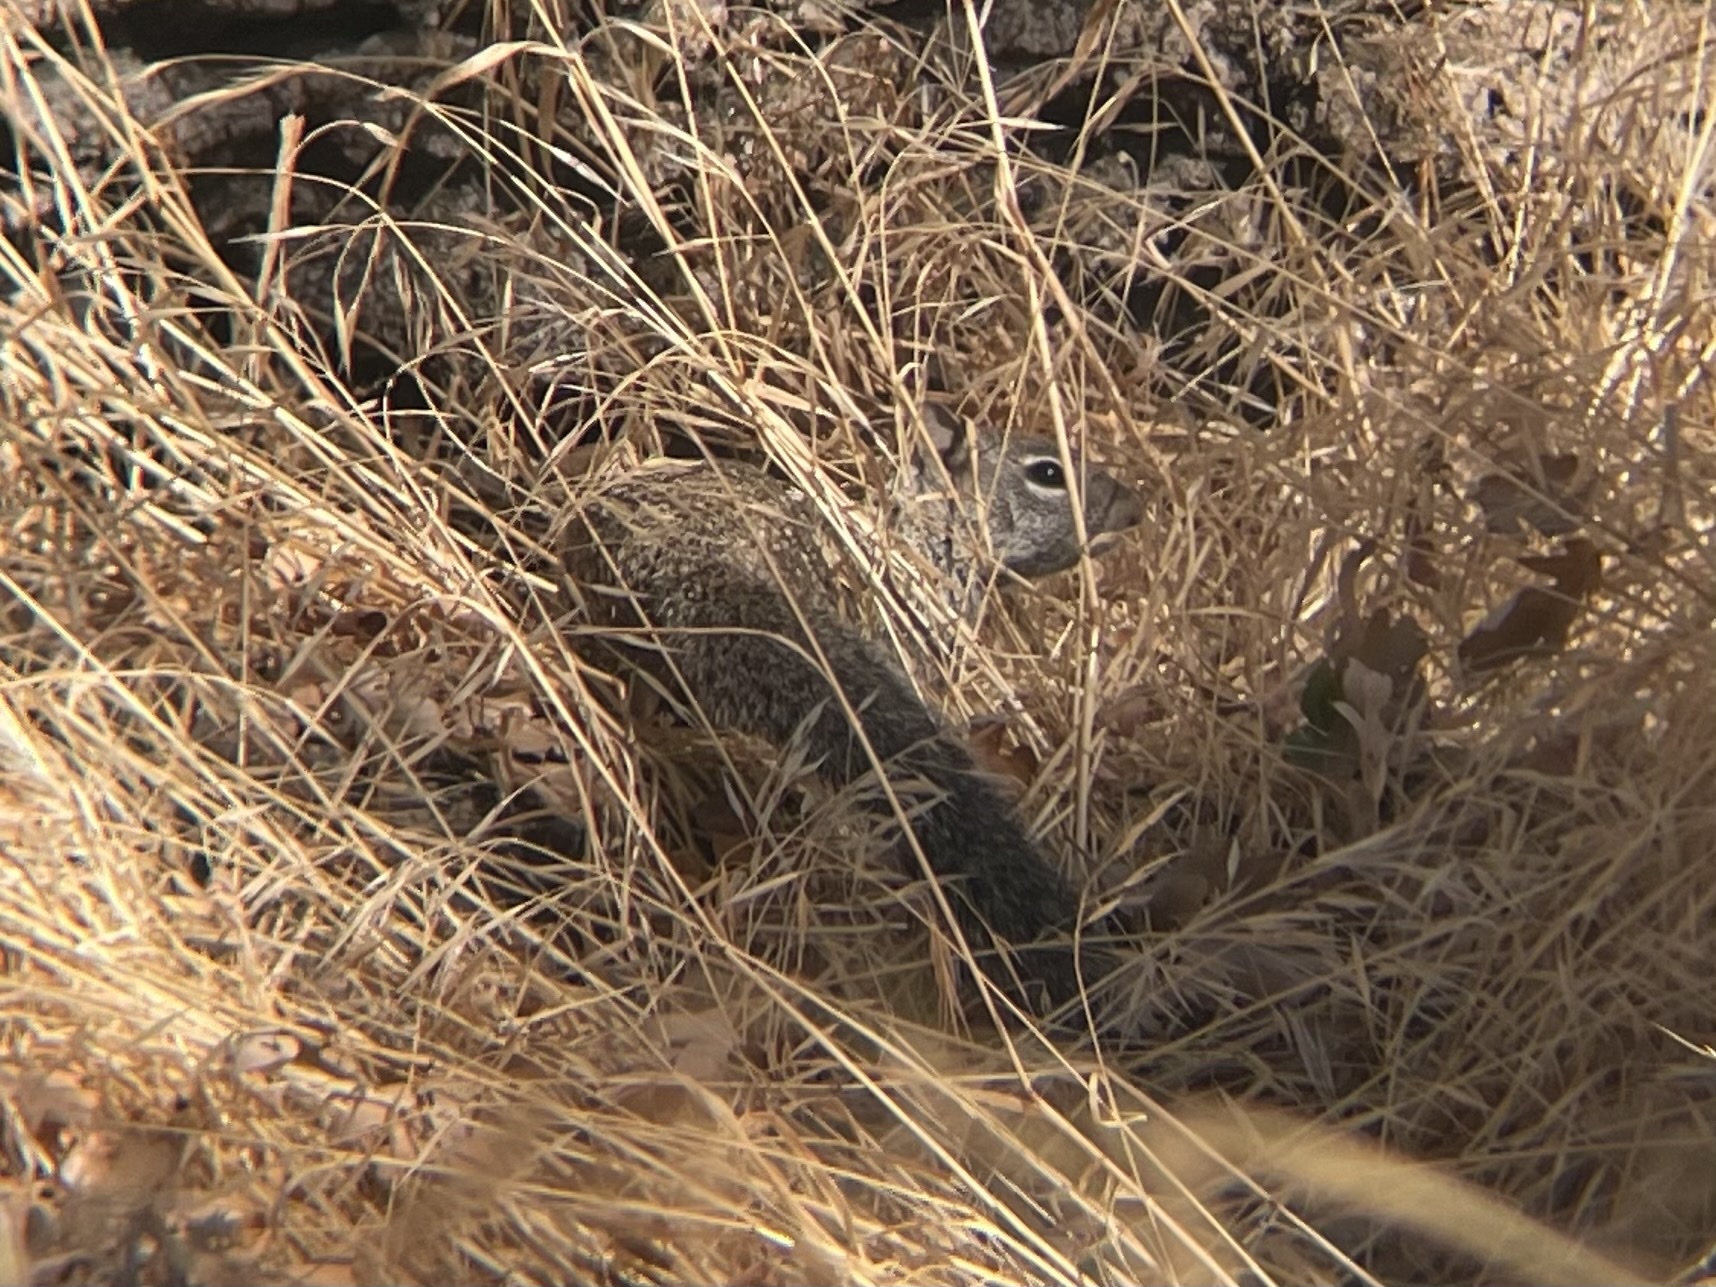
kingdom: Animalia
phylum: Chordata
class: Mammalia
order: Rodentia
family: Sciuridae
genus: Otospermophilus
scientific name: Otospermophilus beecheyi
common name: California ground squirrel
